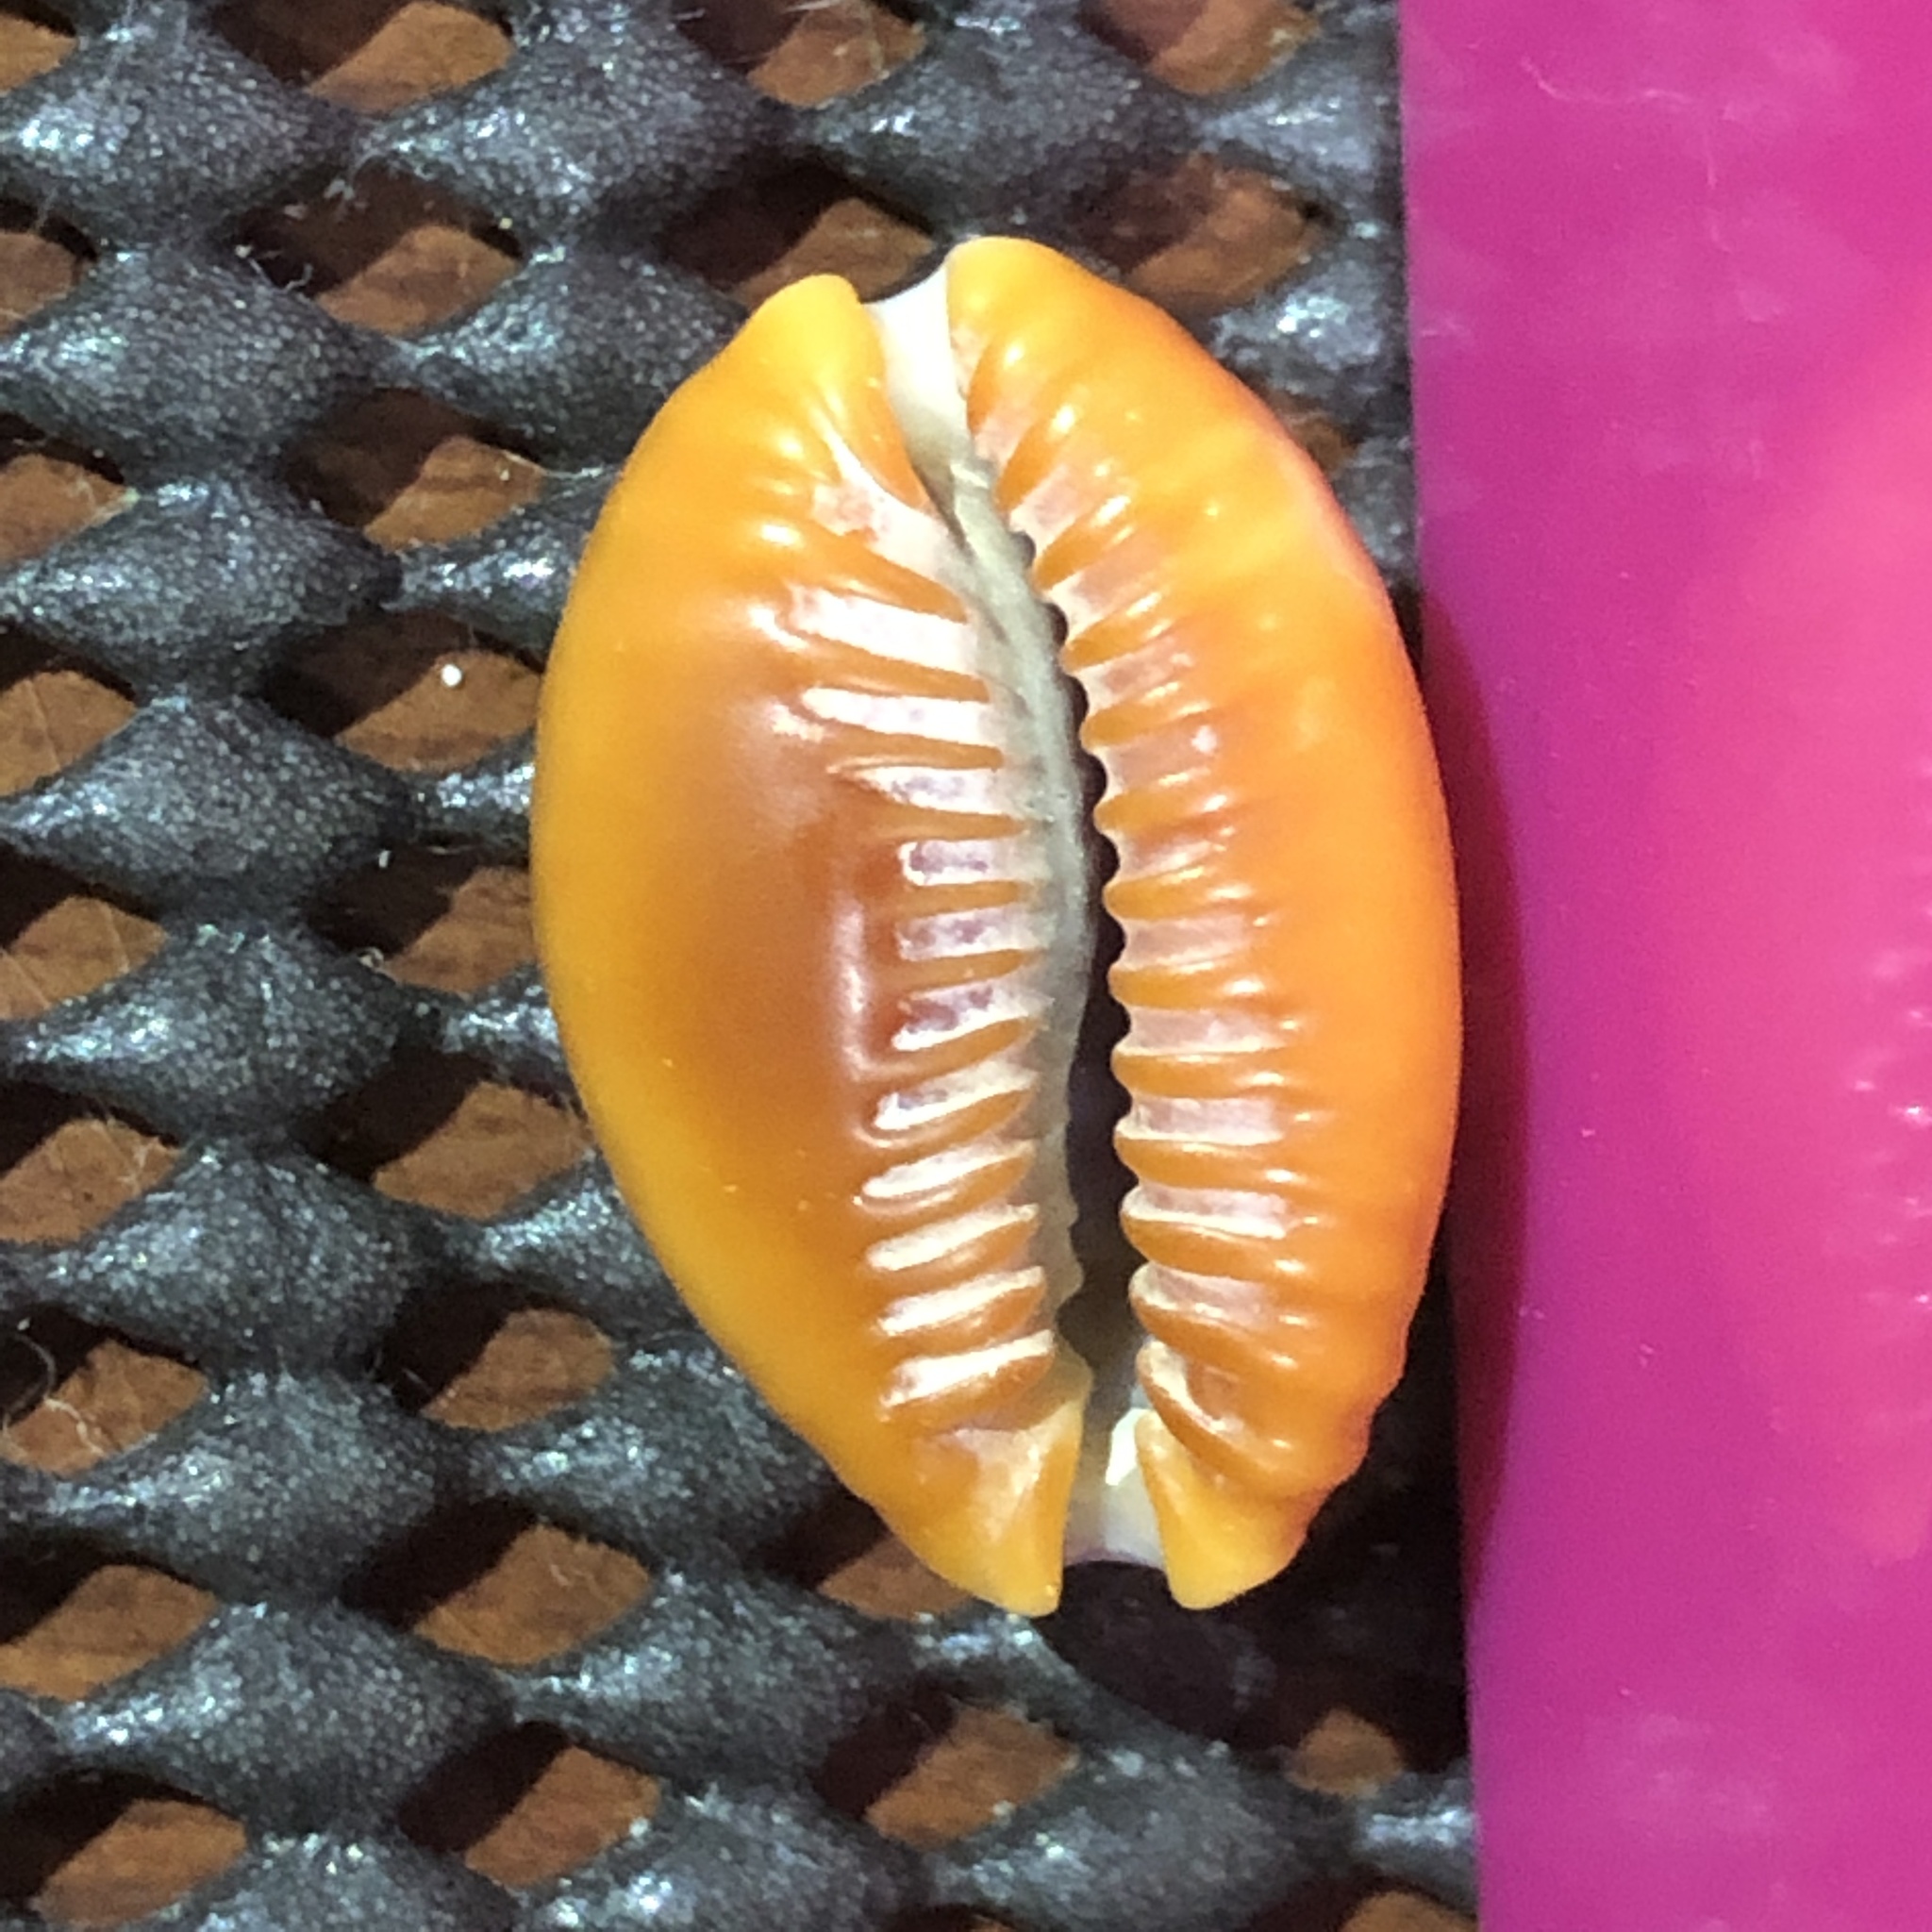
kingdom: Animalia
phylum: Mollusca
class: Gastropoda
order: Littorinimorpha
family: Cypraeidae
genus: Naria
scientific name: Naria helvola
